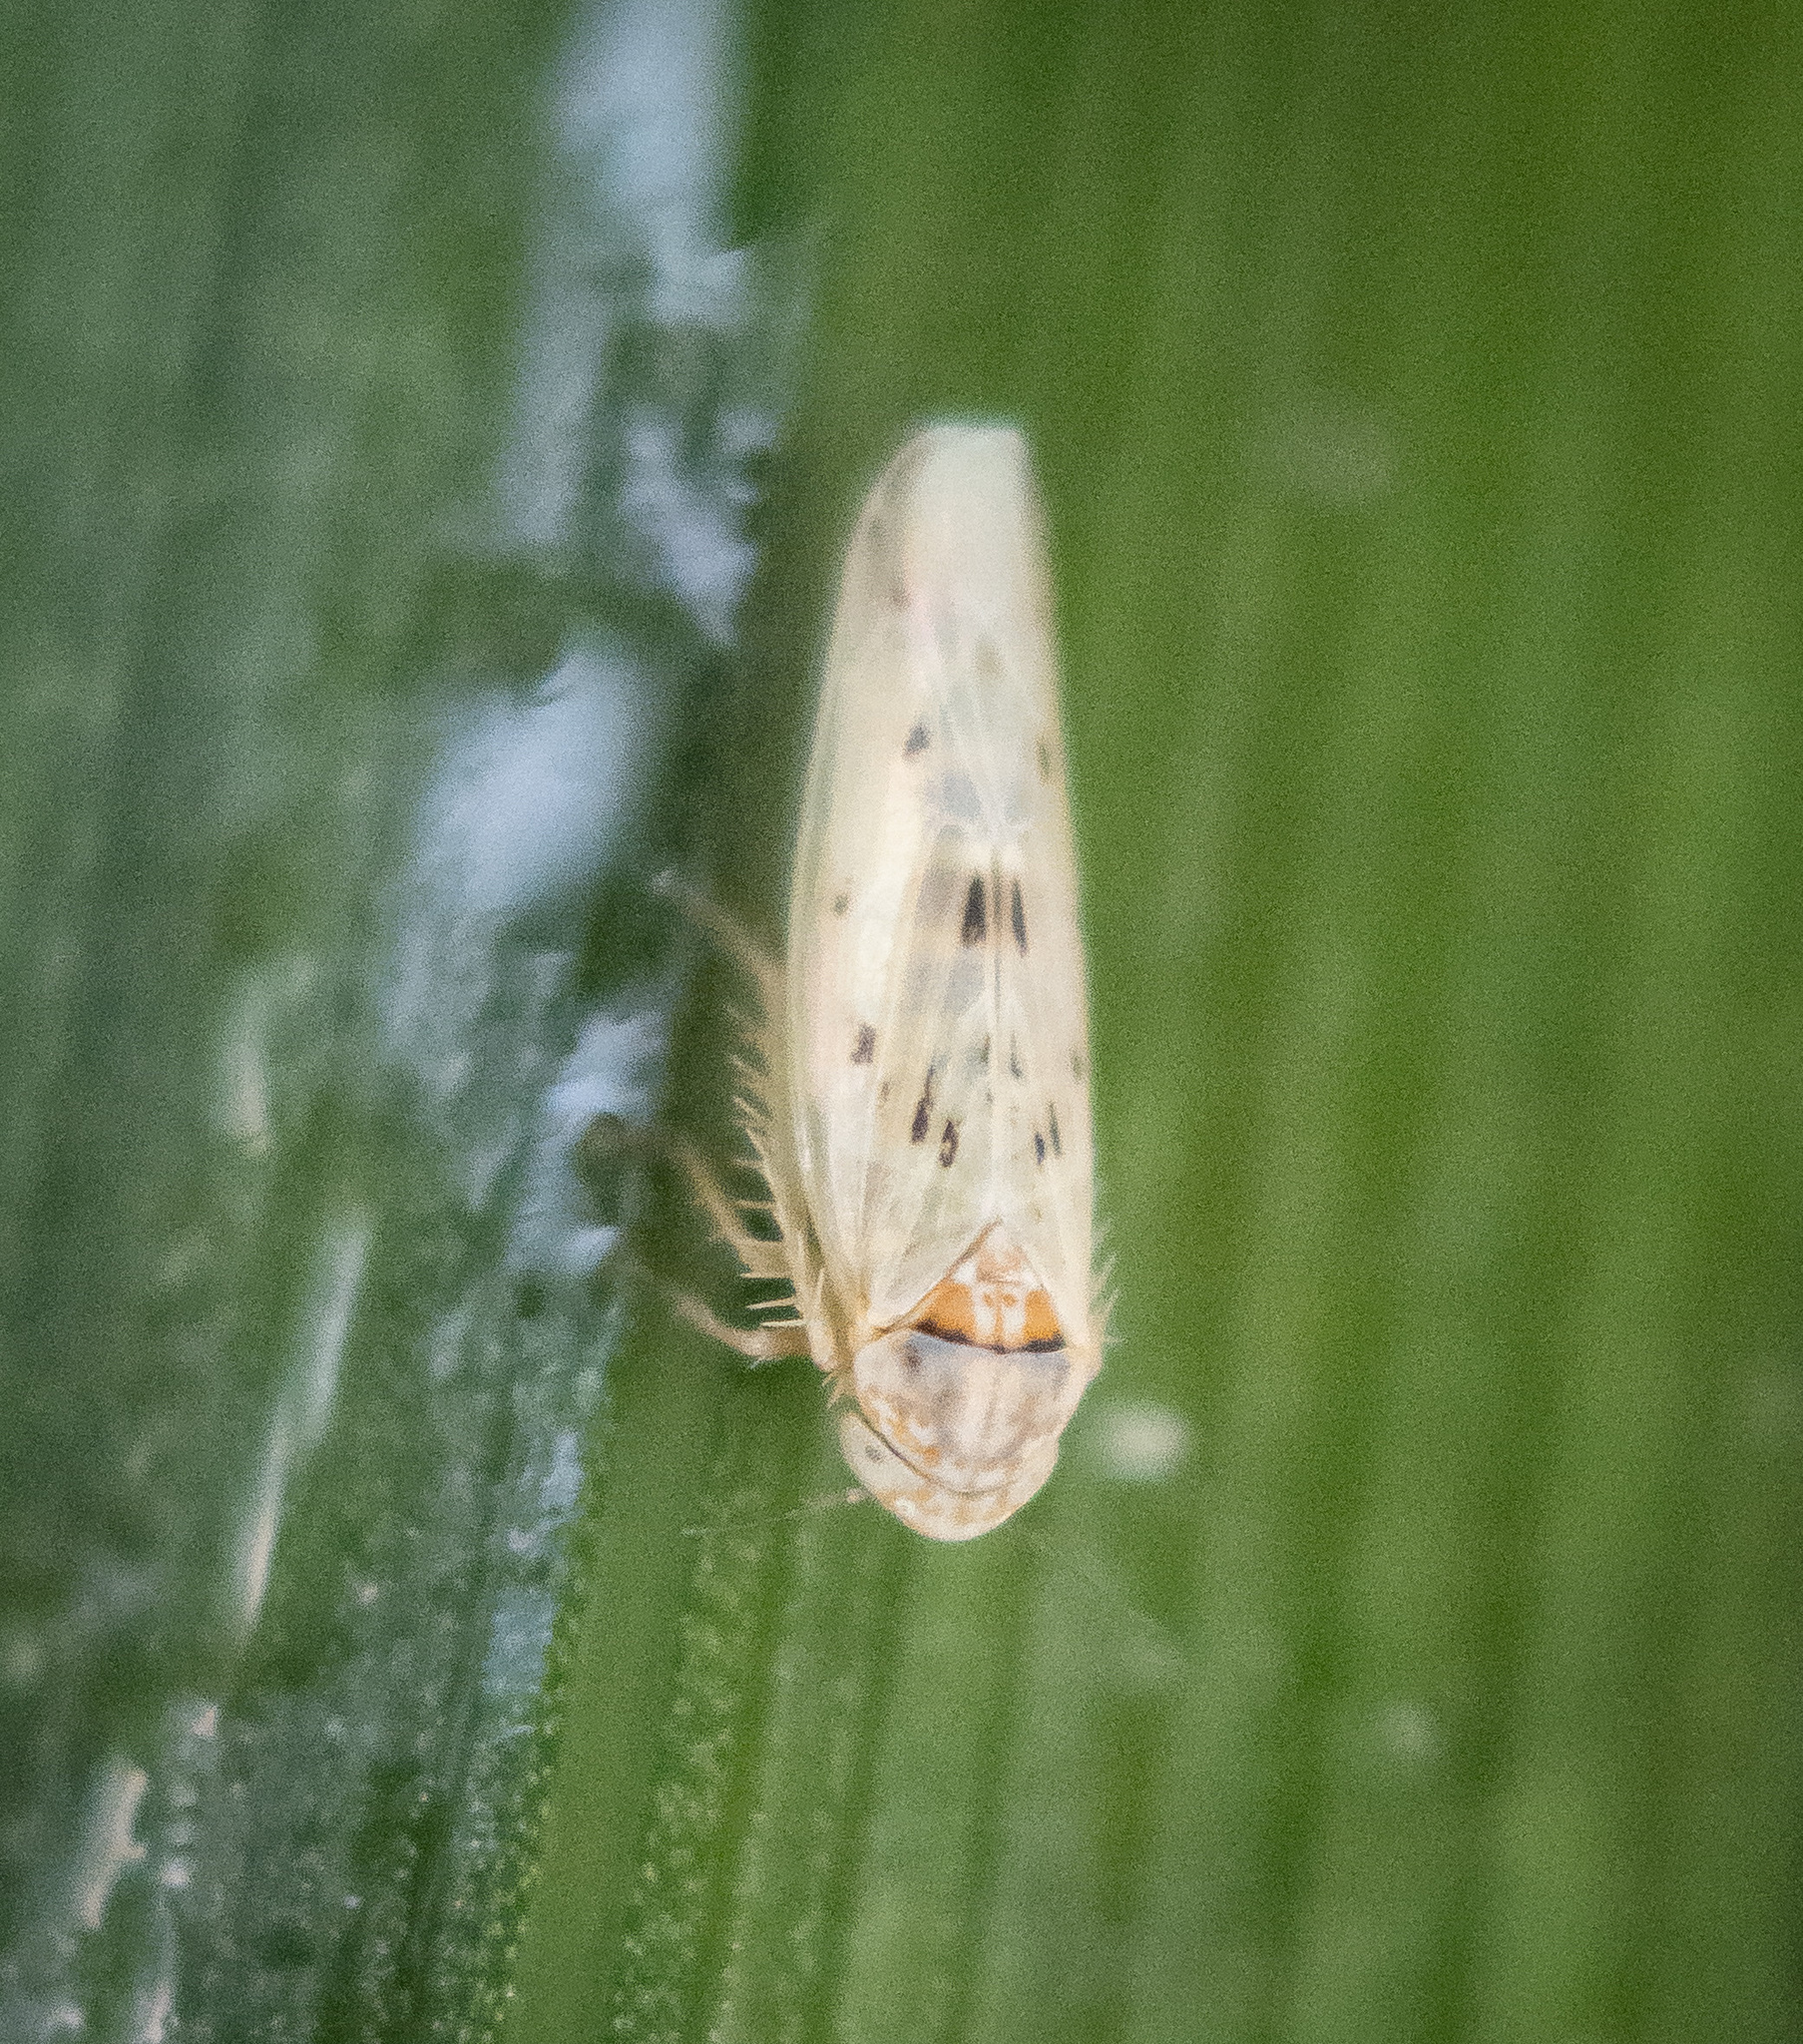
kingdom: Animalia
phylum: Arthropoda
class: Insecta
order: Hemiptera
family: Cicadellidae
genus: Balclutha
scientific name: Balclutha
